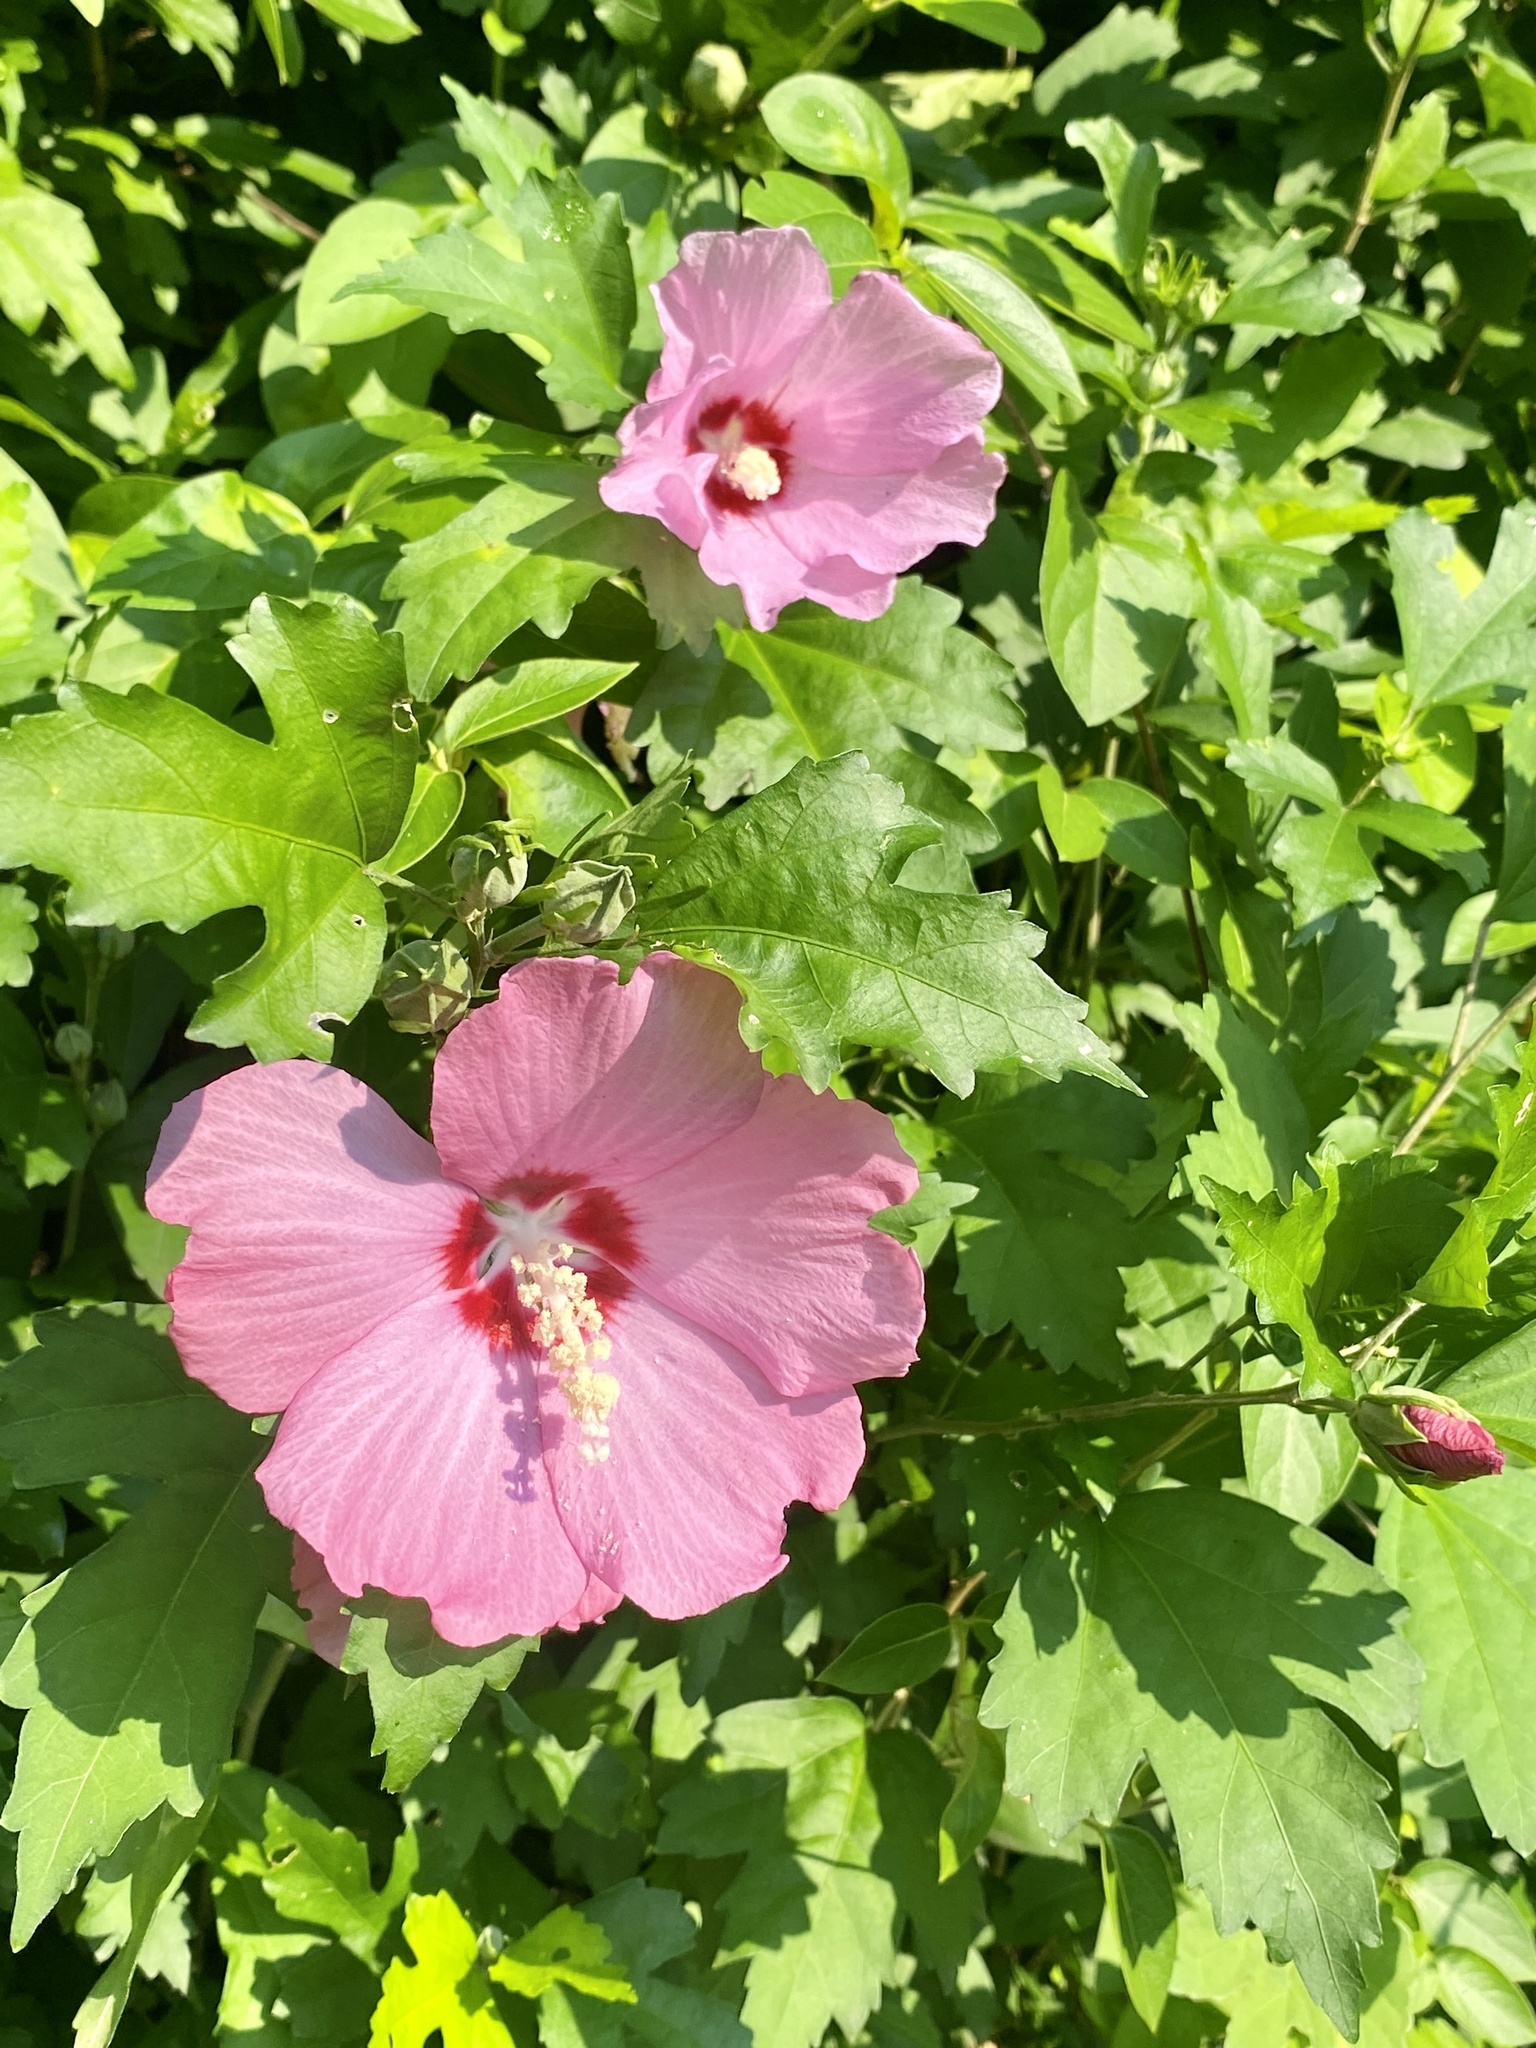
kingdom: Plantae
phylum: Tracheophyta
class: Magnoliopsida
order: Malvales
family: Malvaceae
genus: Hibiscus
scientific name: Hibiscus syriacus
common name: Syrian ketmia
